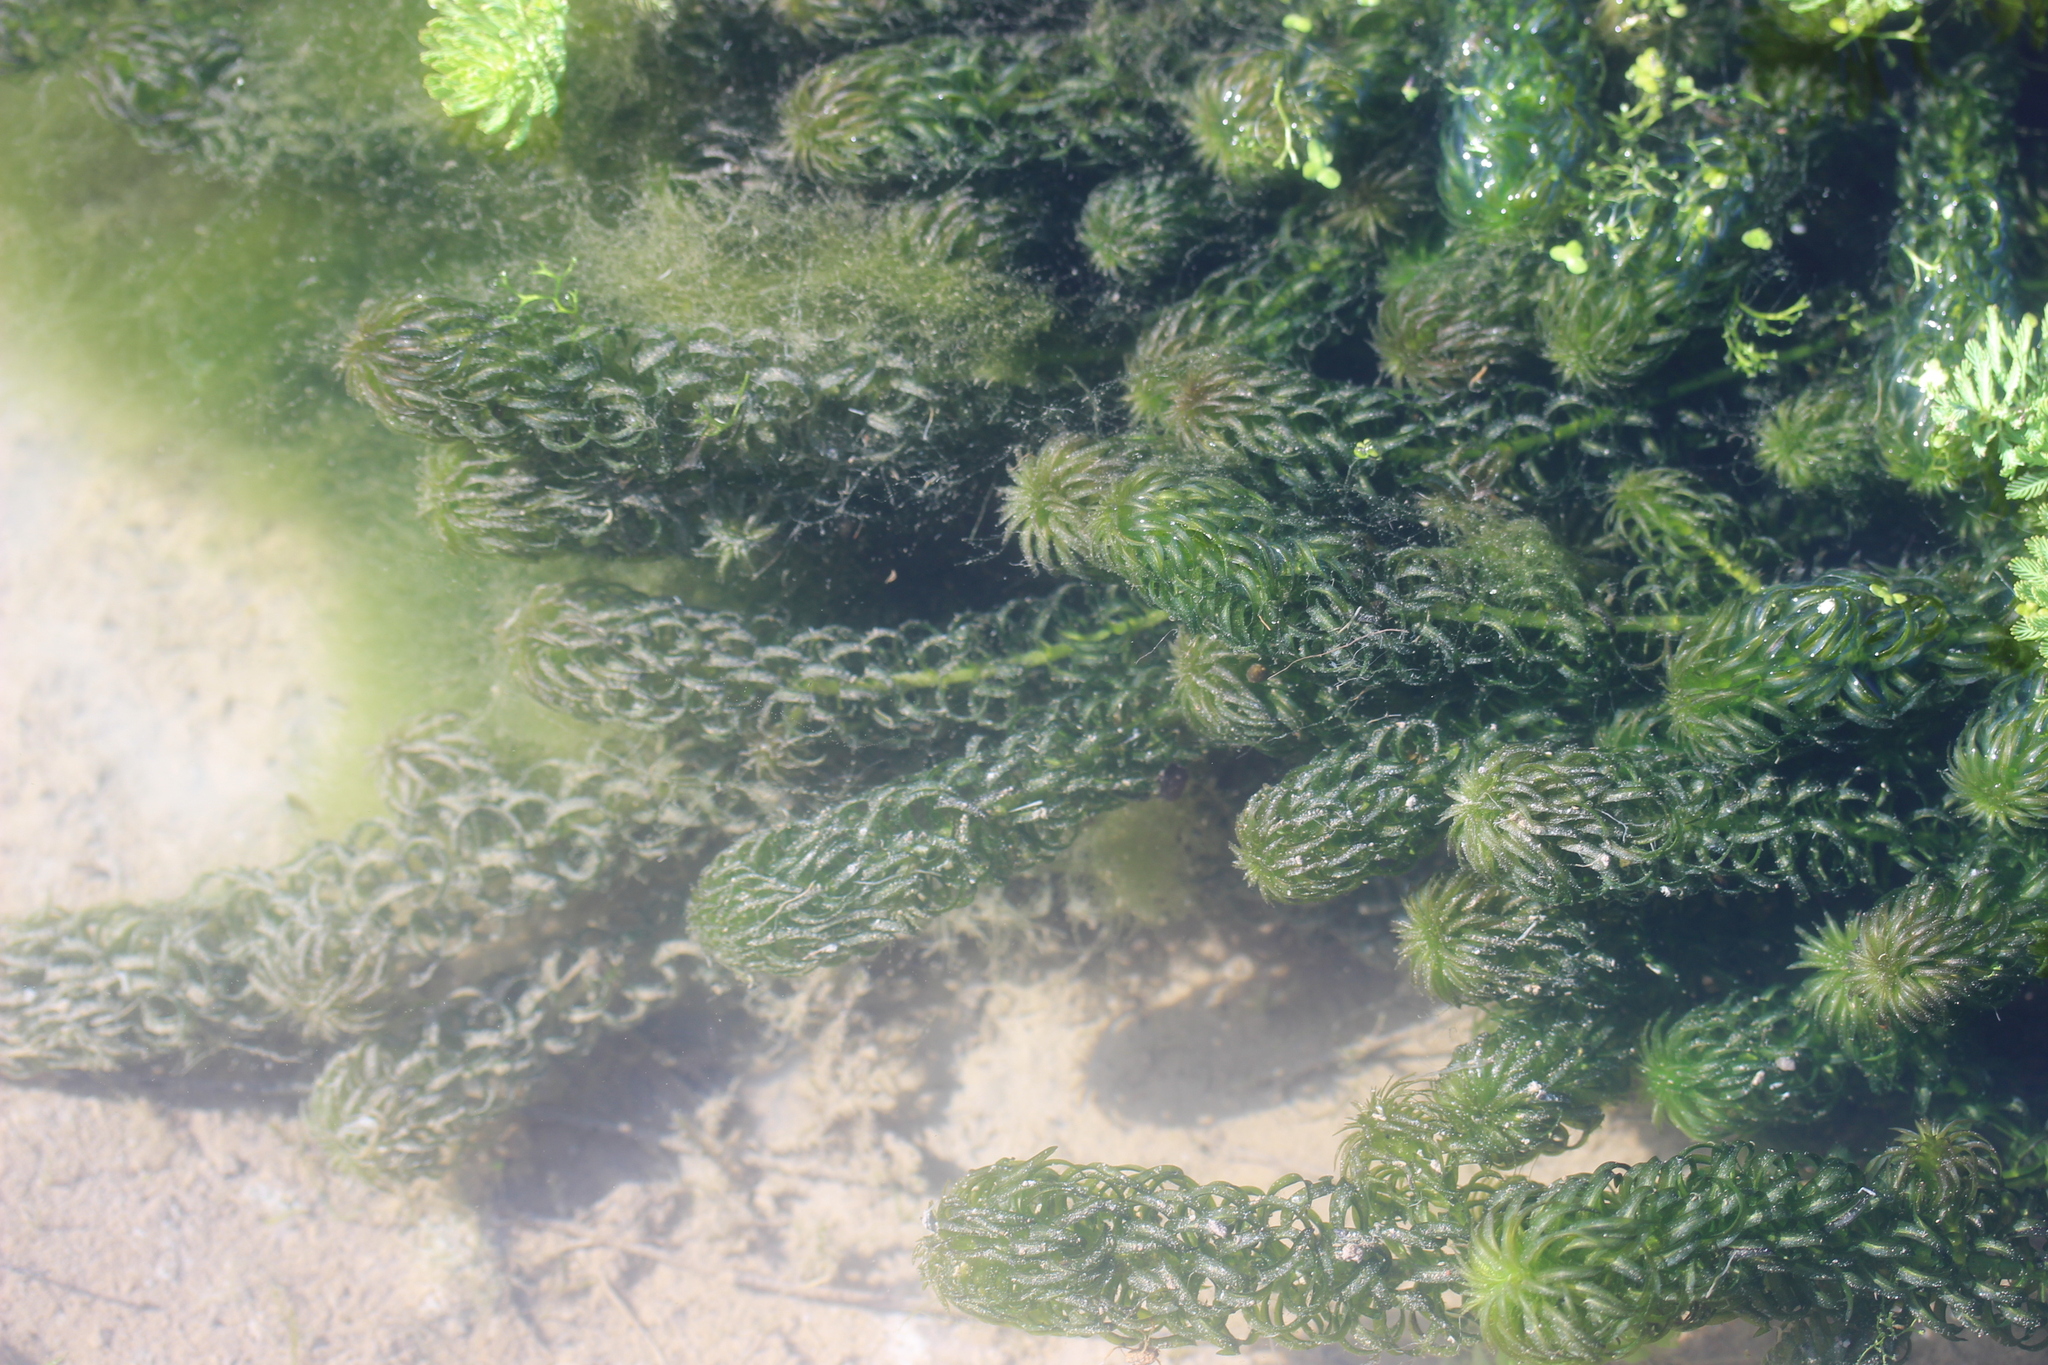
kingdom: Plantae
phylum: Tracheophyta
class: Liliopsida
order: Alismatales
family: Hydrocharitaceae
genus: Lagarosiphon
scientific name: Lagarosiphon major
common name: Curly waterweed
